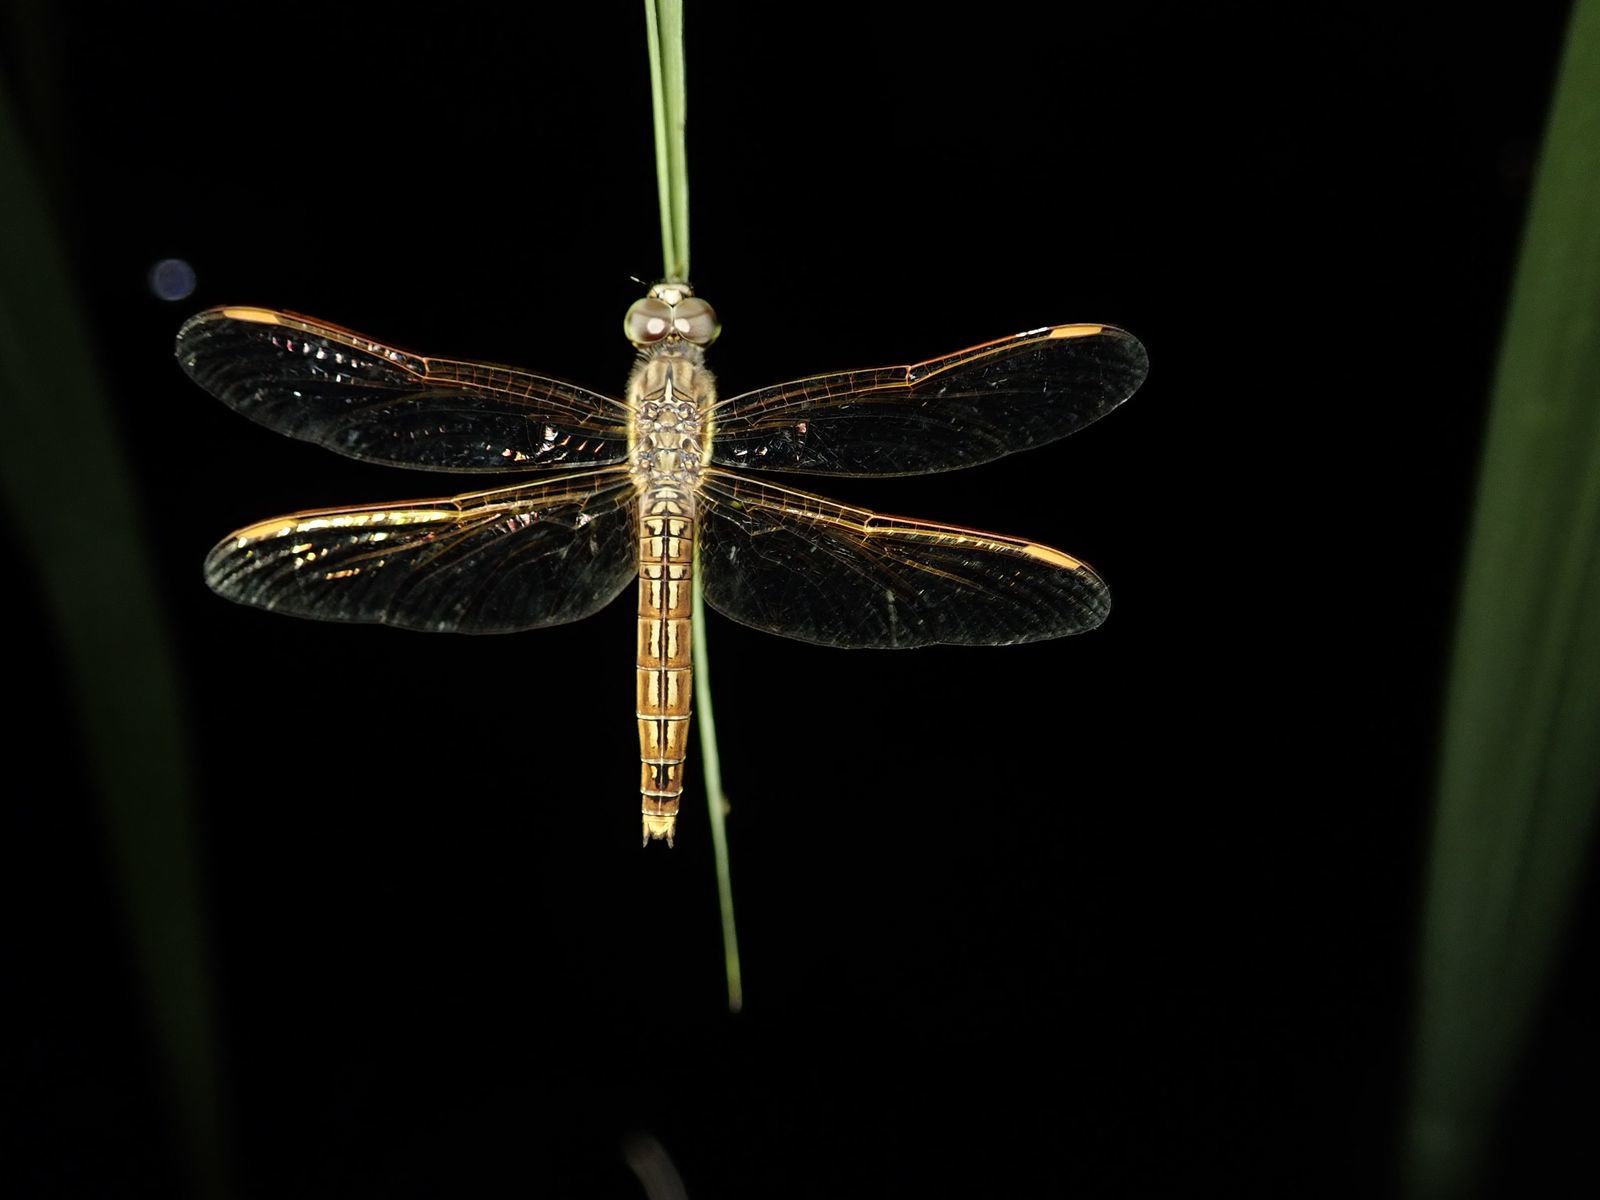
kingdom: Animalia
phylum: Arthropoda
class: Insecta
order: Odonata
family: Libellulidae
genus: Brachythemis
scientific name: Brachythemis contaminata
